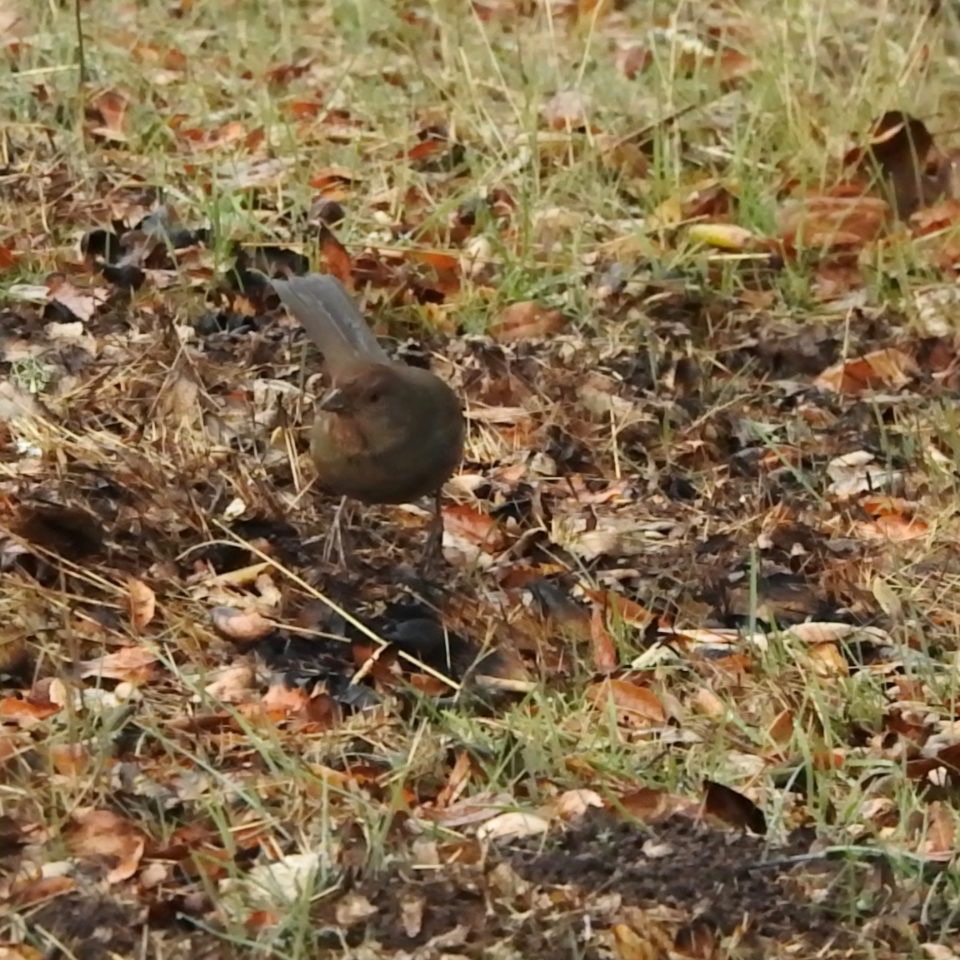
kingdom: Animalia
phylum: Chordata
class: Aves
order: Passeriformes
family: Passerellidae
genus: Melozone
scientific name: Melozone crissalis
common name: California towhee
